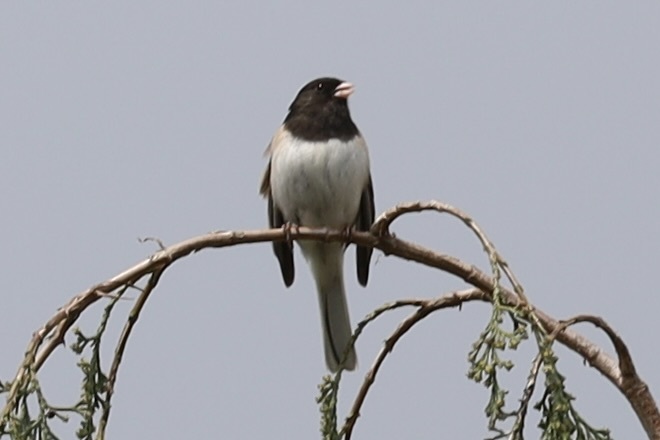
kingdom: Animalia
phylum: Chordata
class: Aves
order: Passeriformes
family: Passerellidae
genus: Junco
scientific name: Junco hyemalis
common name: Dark-eyed junco
